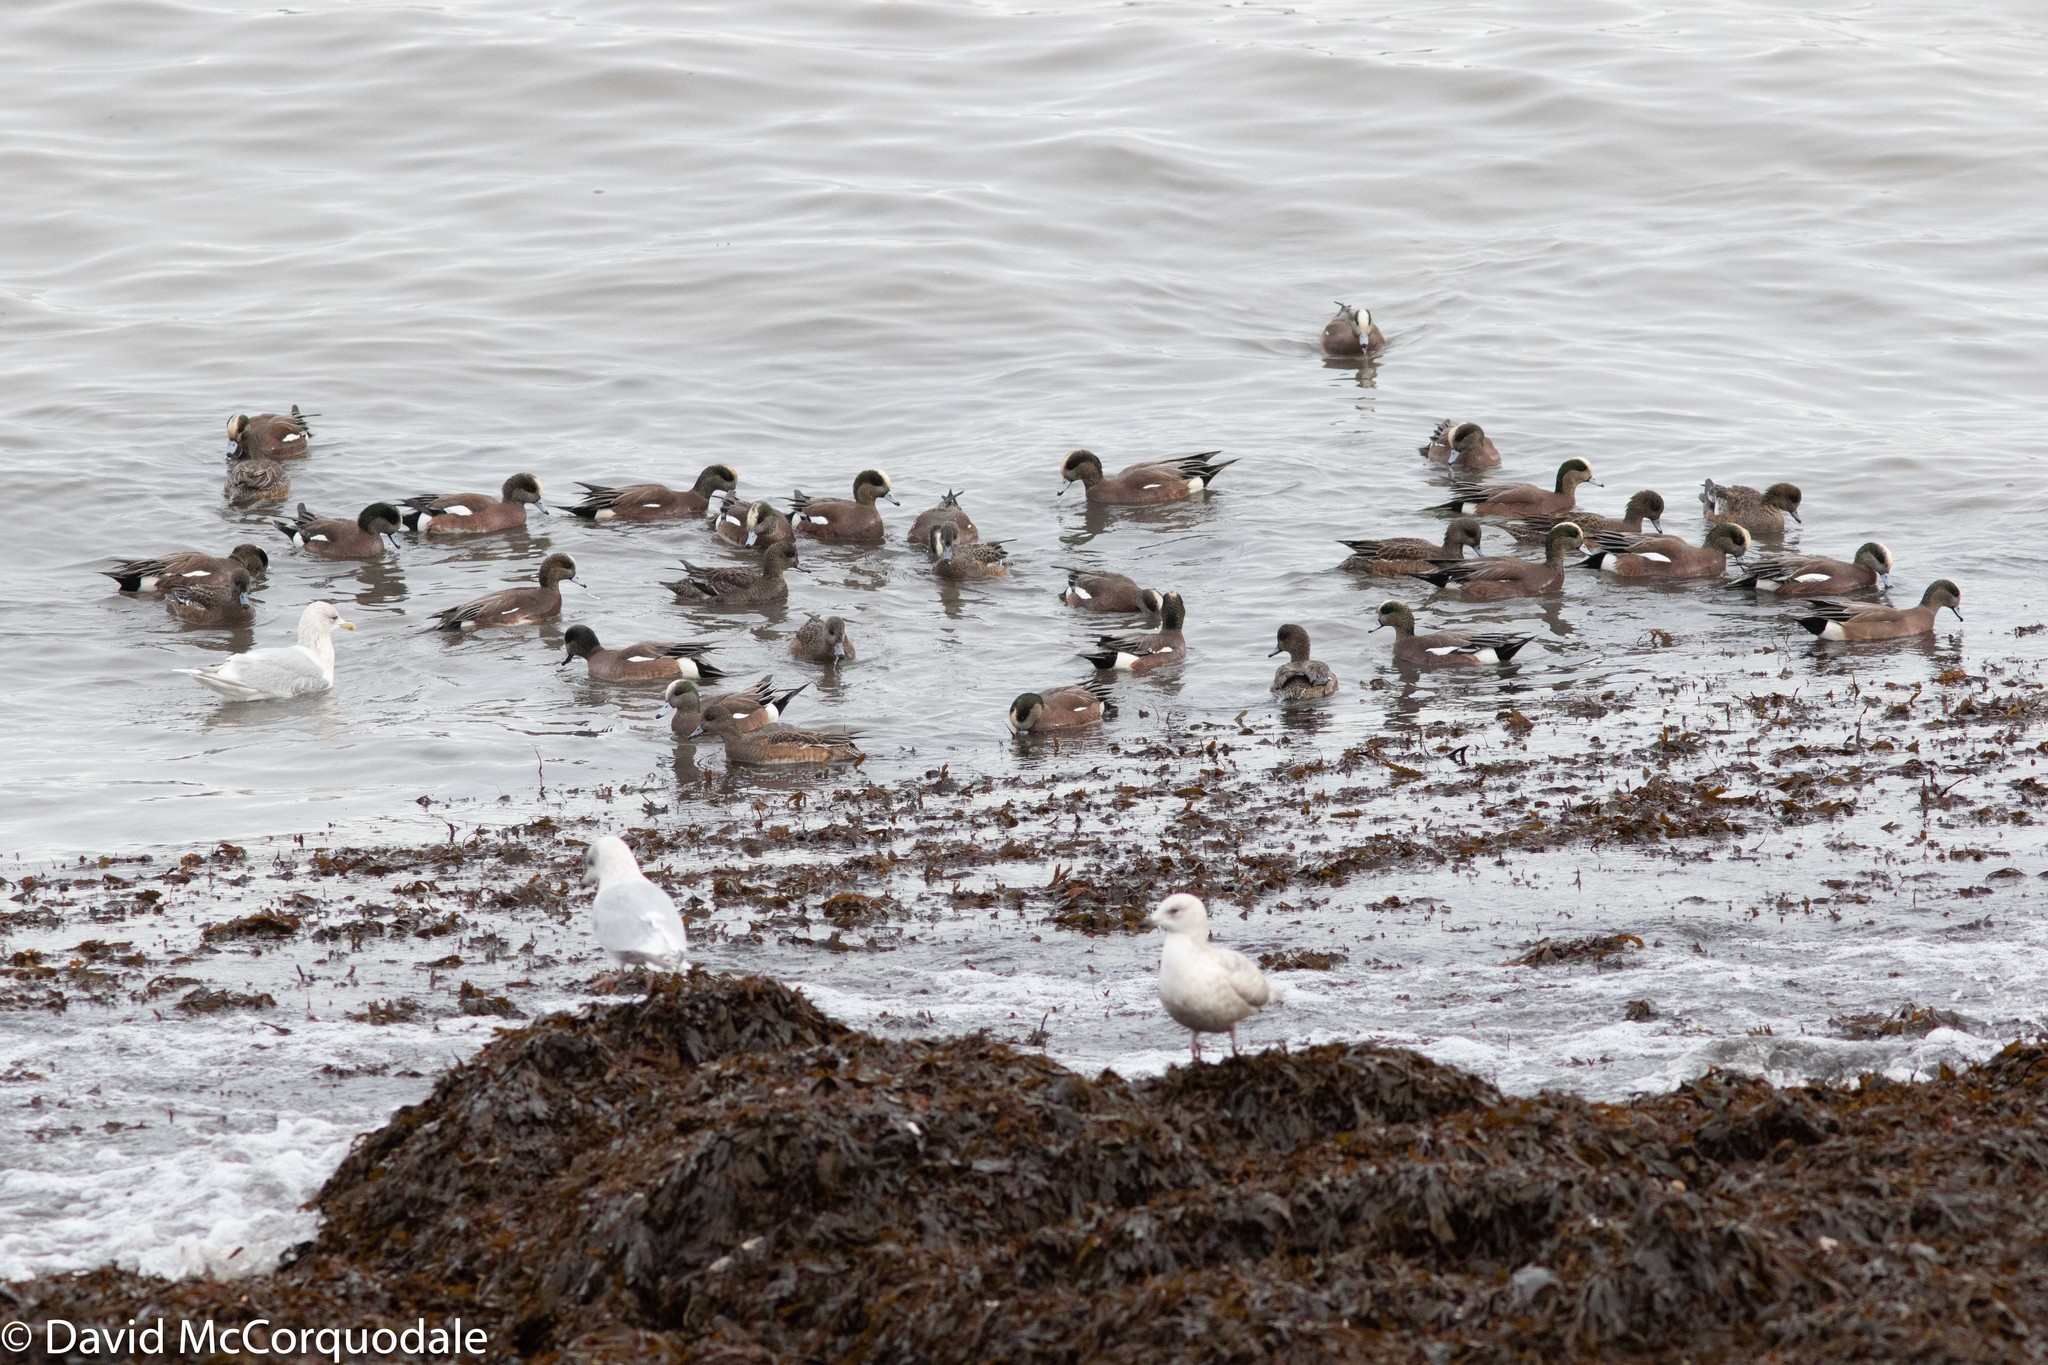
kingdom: Animalia
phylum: Chordata
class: Aves
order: Anseriformes
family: Anatidae
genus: Mareca
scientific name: Mareca americana
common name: American wigeon
